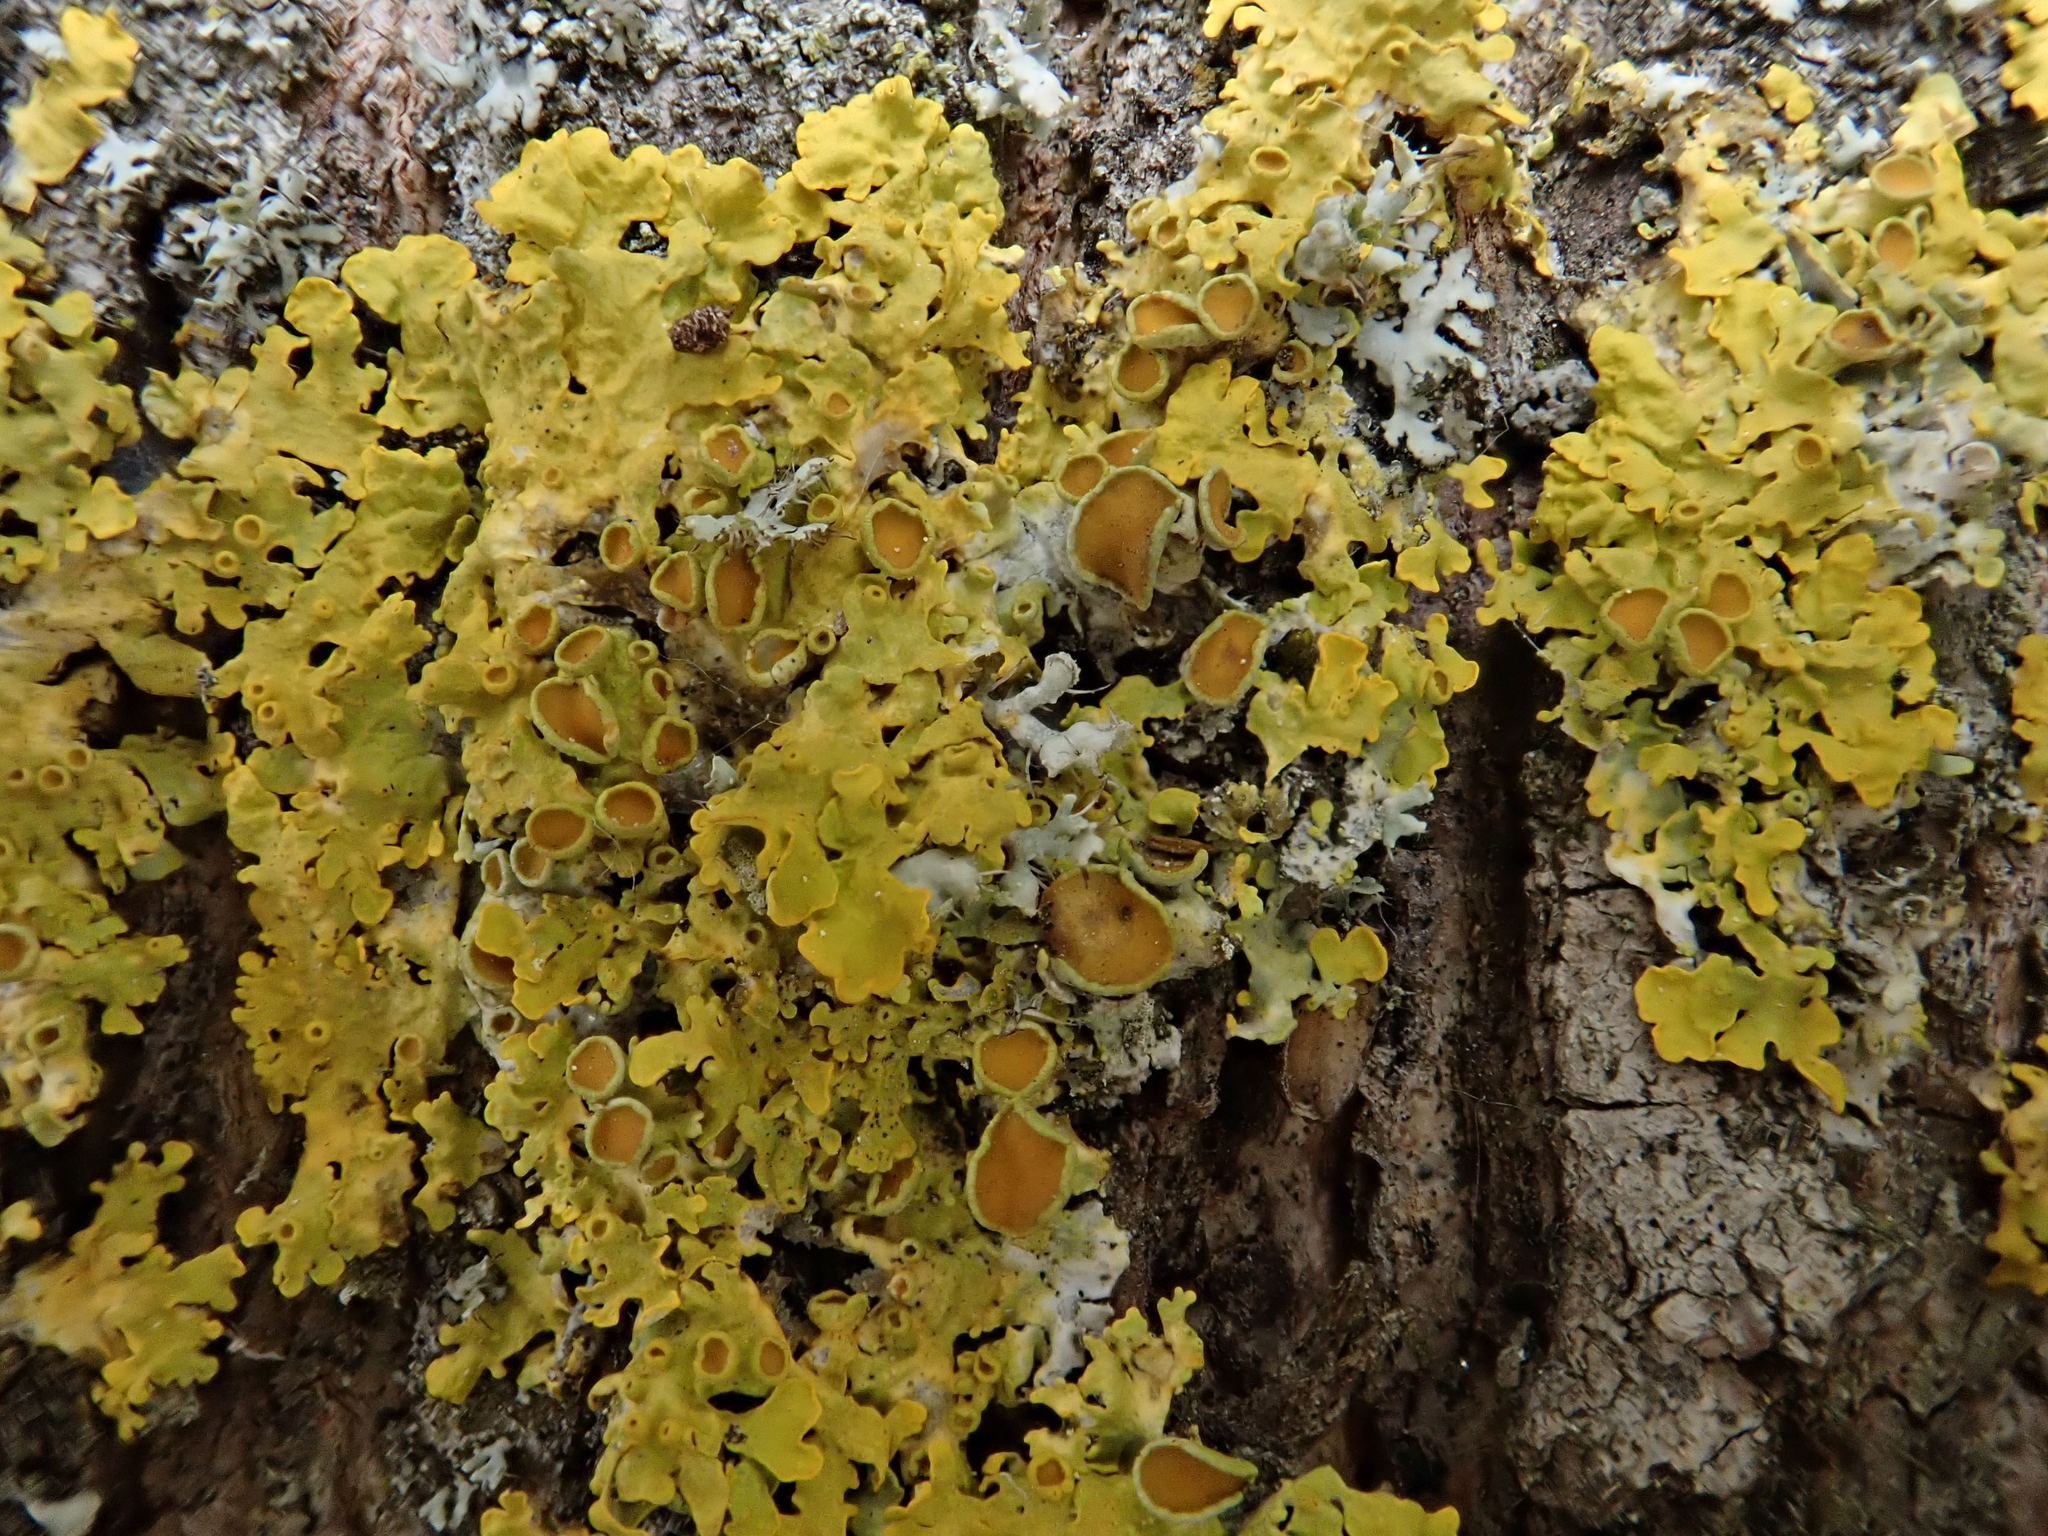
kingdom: Fungi
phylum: Ascomycota
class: Lecanoromycetes
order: Teloschistales
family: Teloschistaceae
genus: Xanthoria
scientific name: Xanthoria parietina
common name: Common orange lichen
